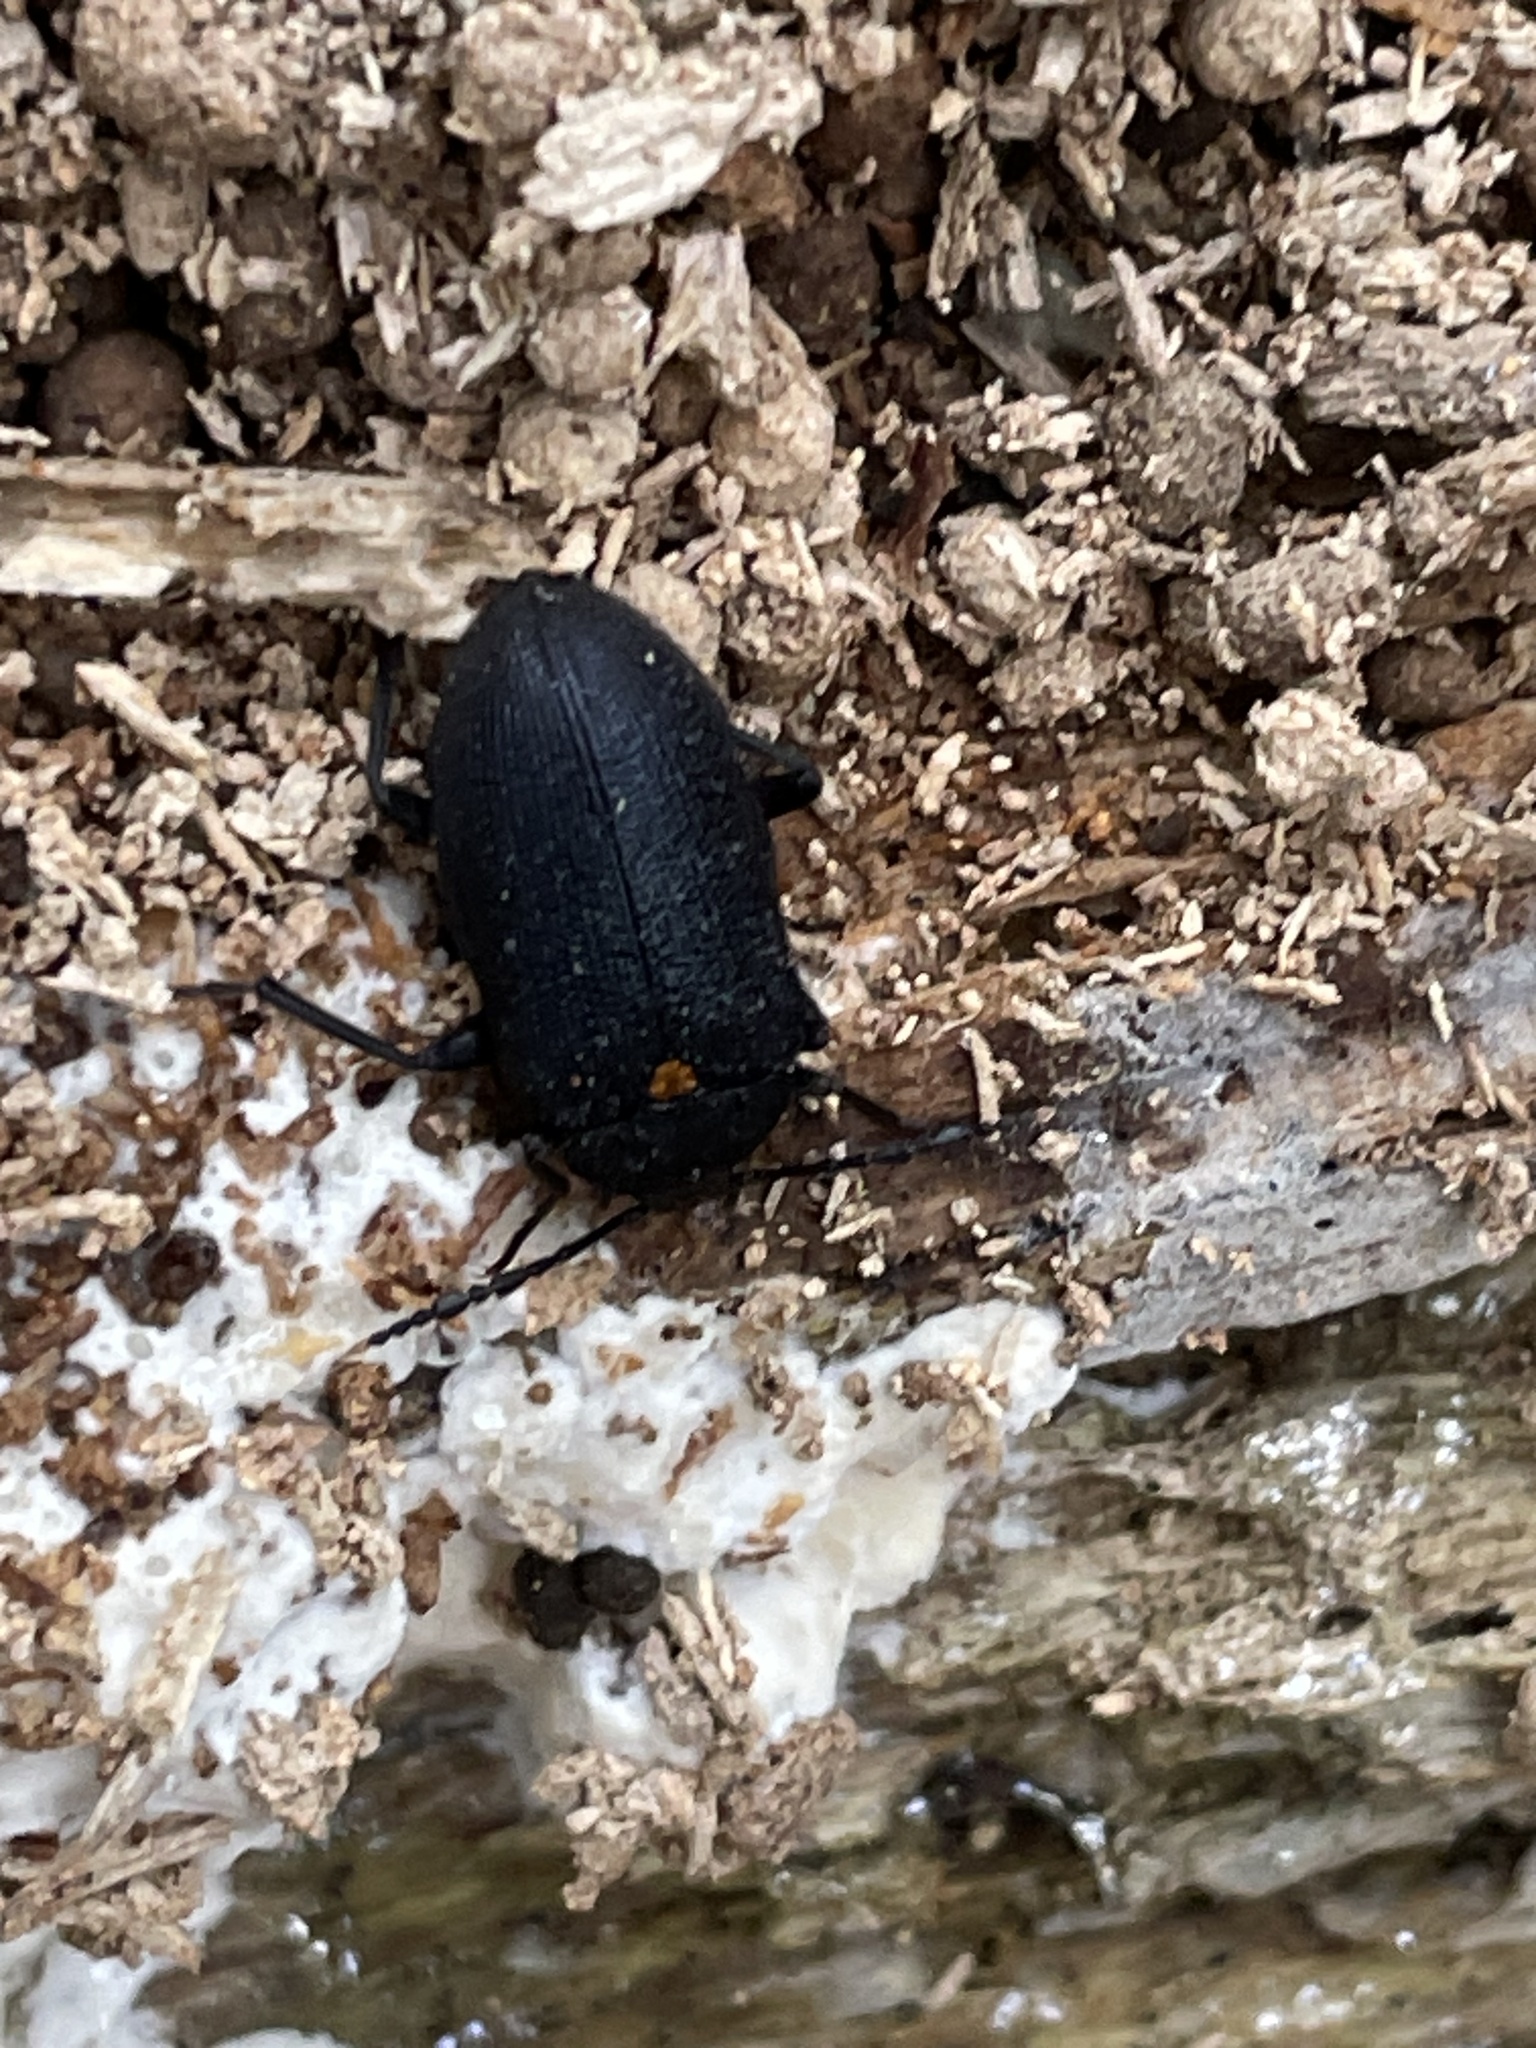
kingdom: Animalia
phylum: Arthropoda
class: Insecta
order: Coleoptera
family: Tetratomidae
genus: Penthe
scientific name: Penthe obliquata
